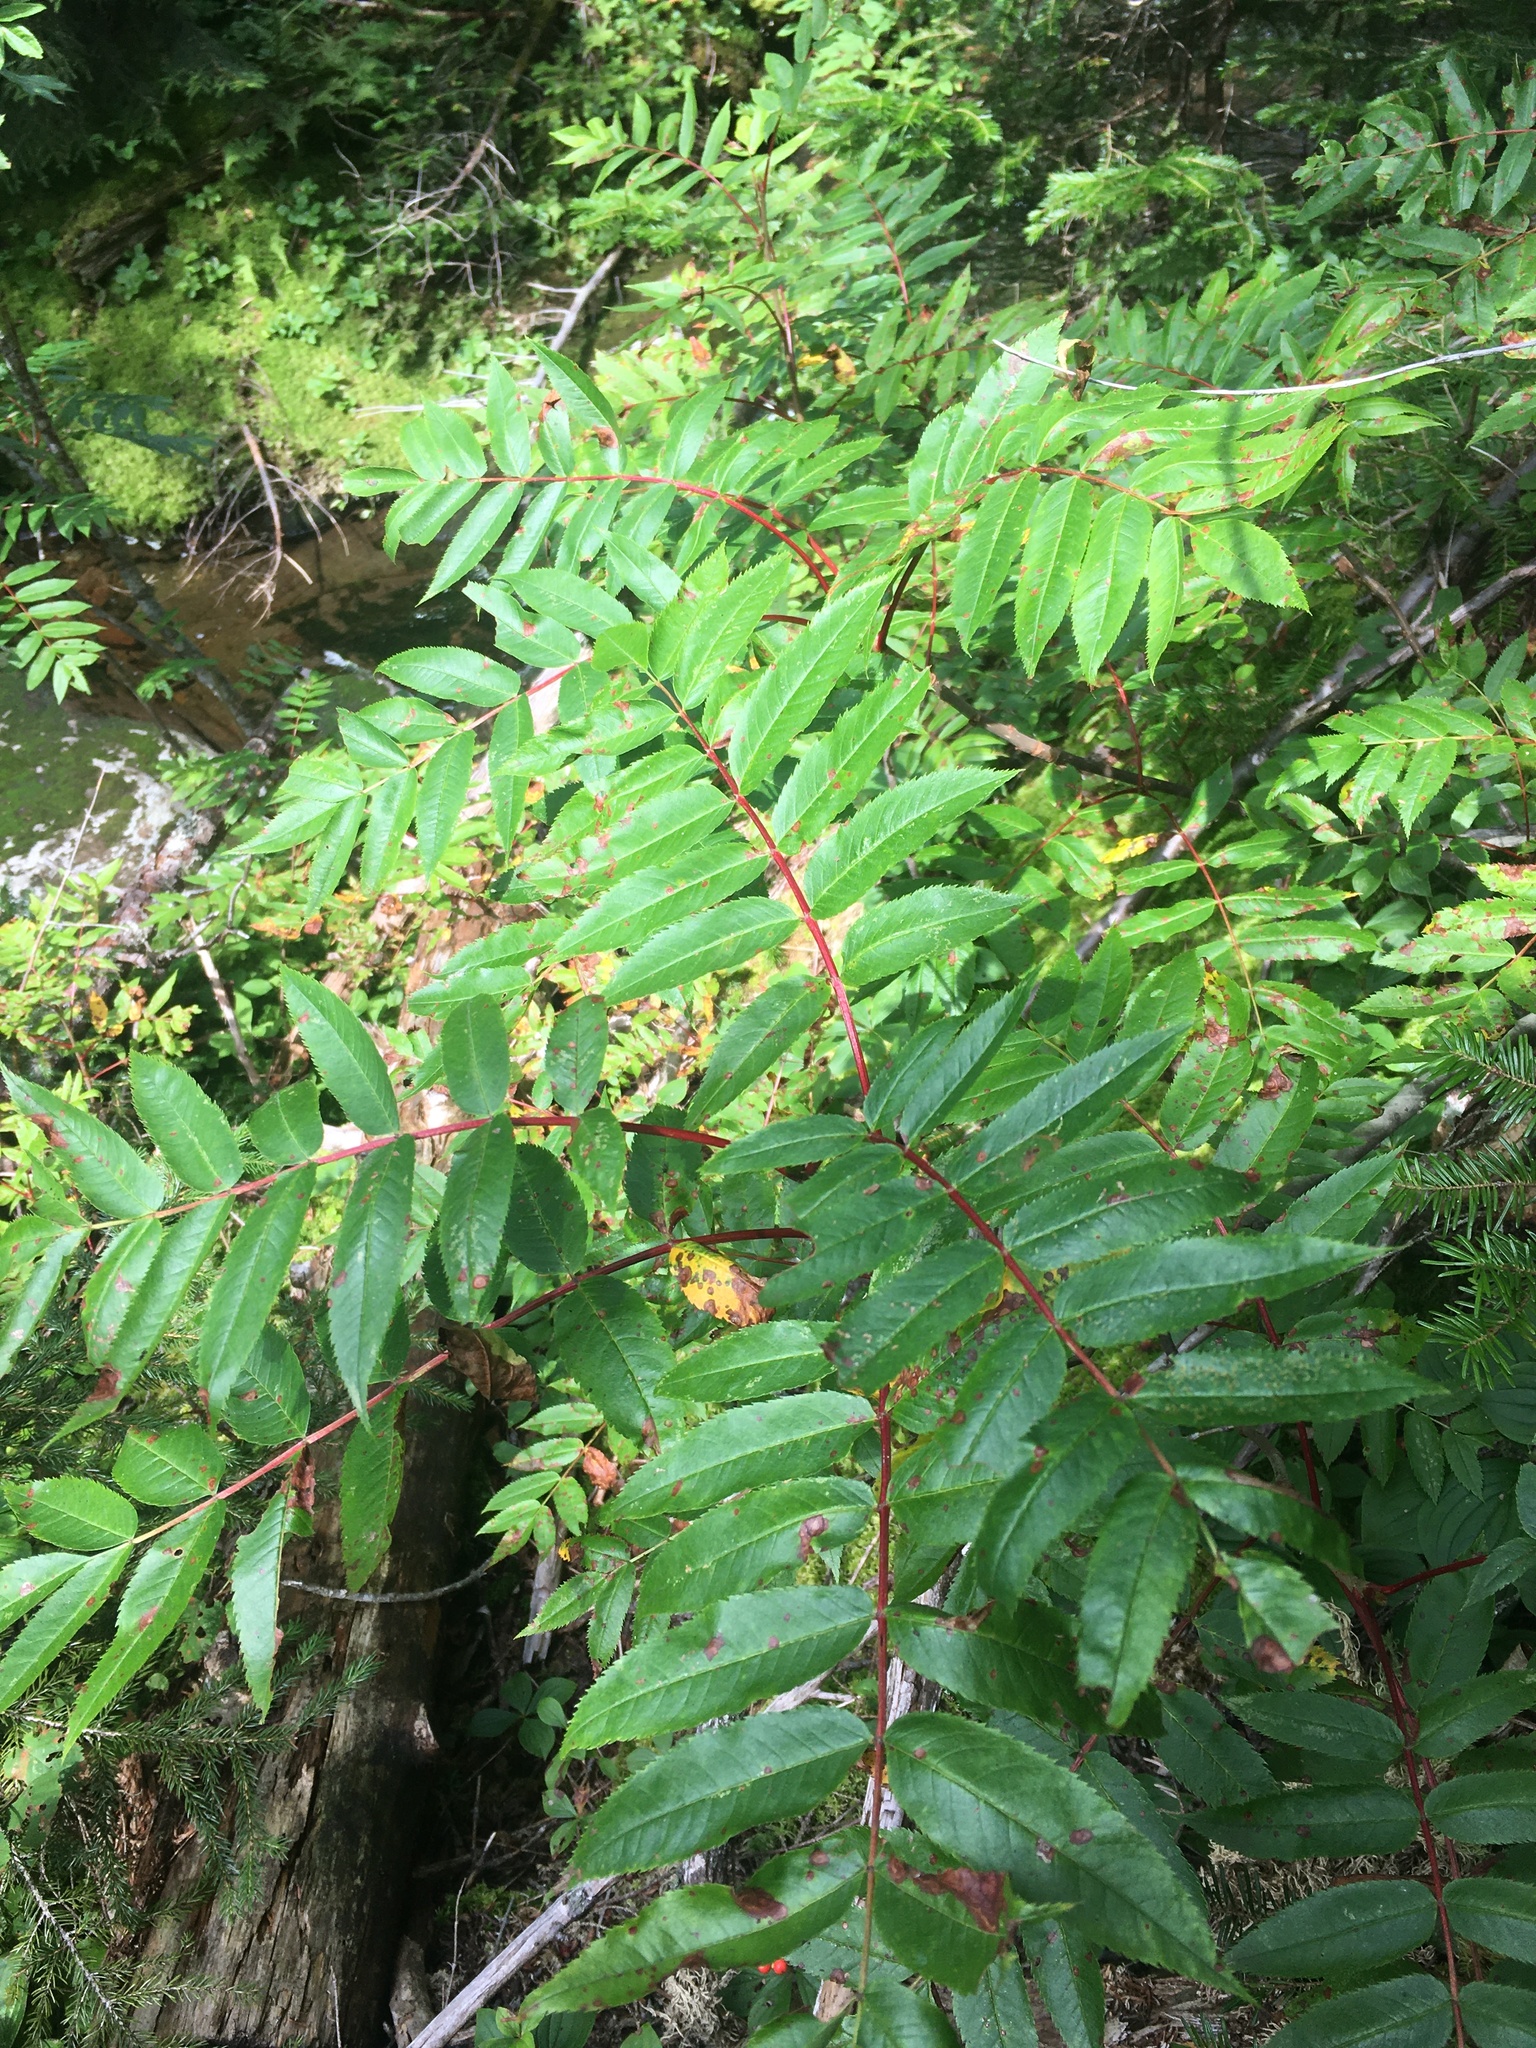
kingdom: Plantae
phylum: Tracheophyta
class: Magnoliopsida
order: Rosales
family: Rosaceae
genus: Sorbus
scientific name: Sorbus americana
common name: American mountain-ash
